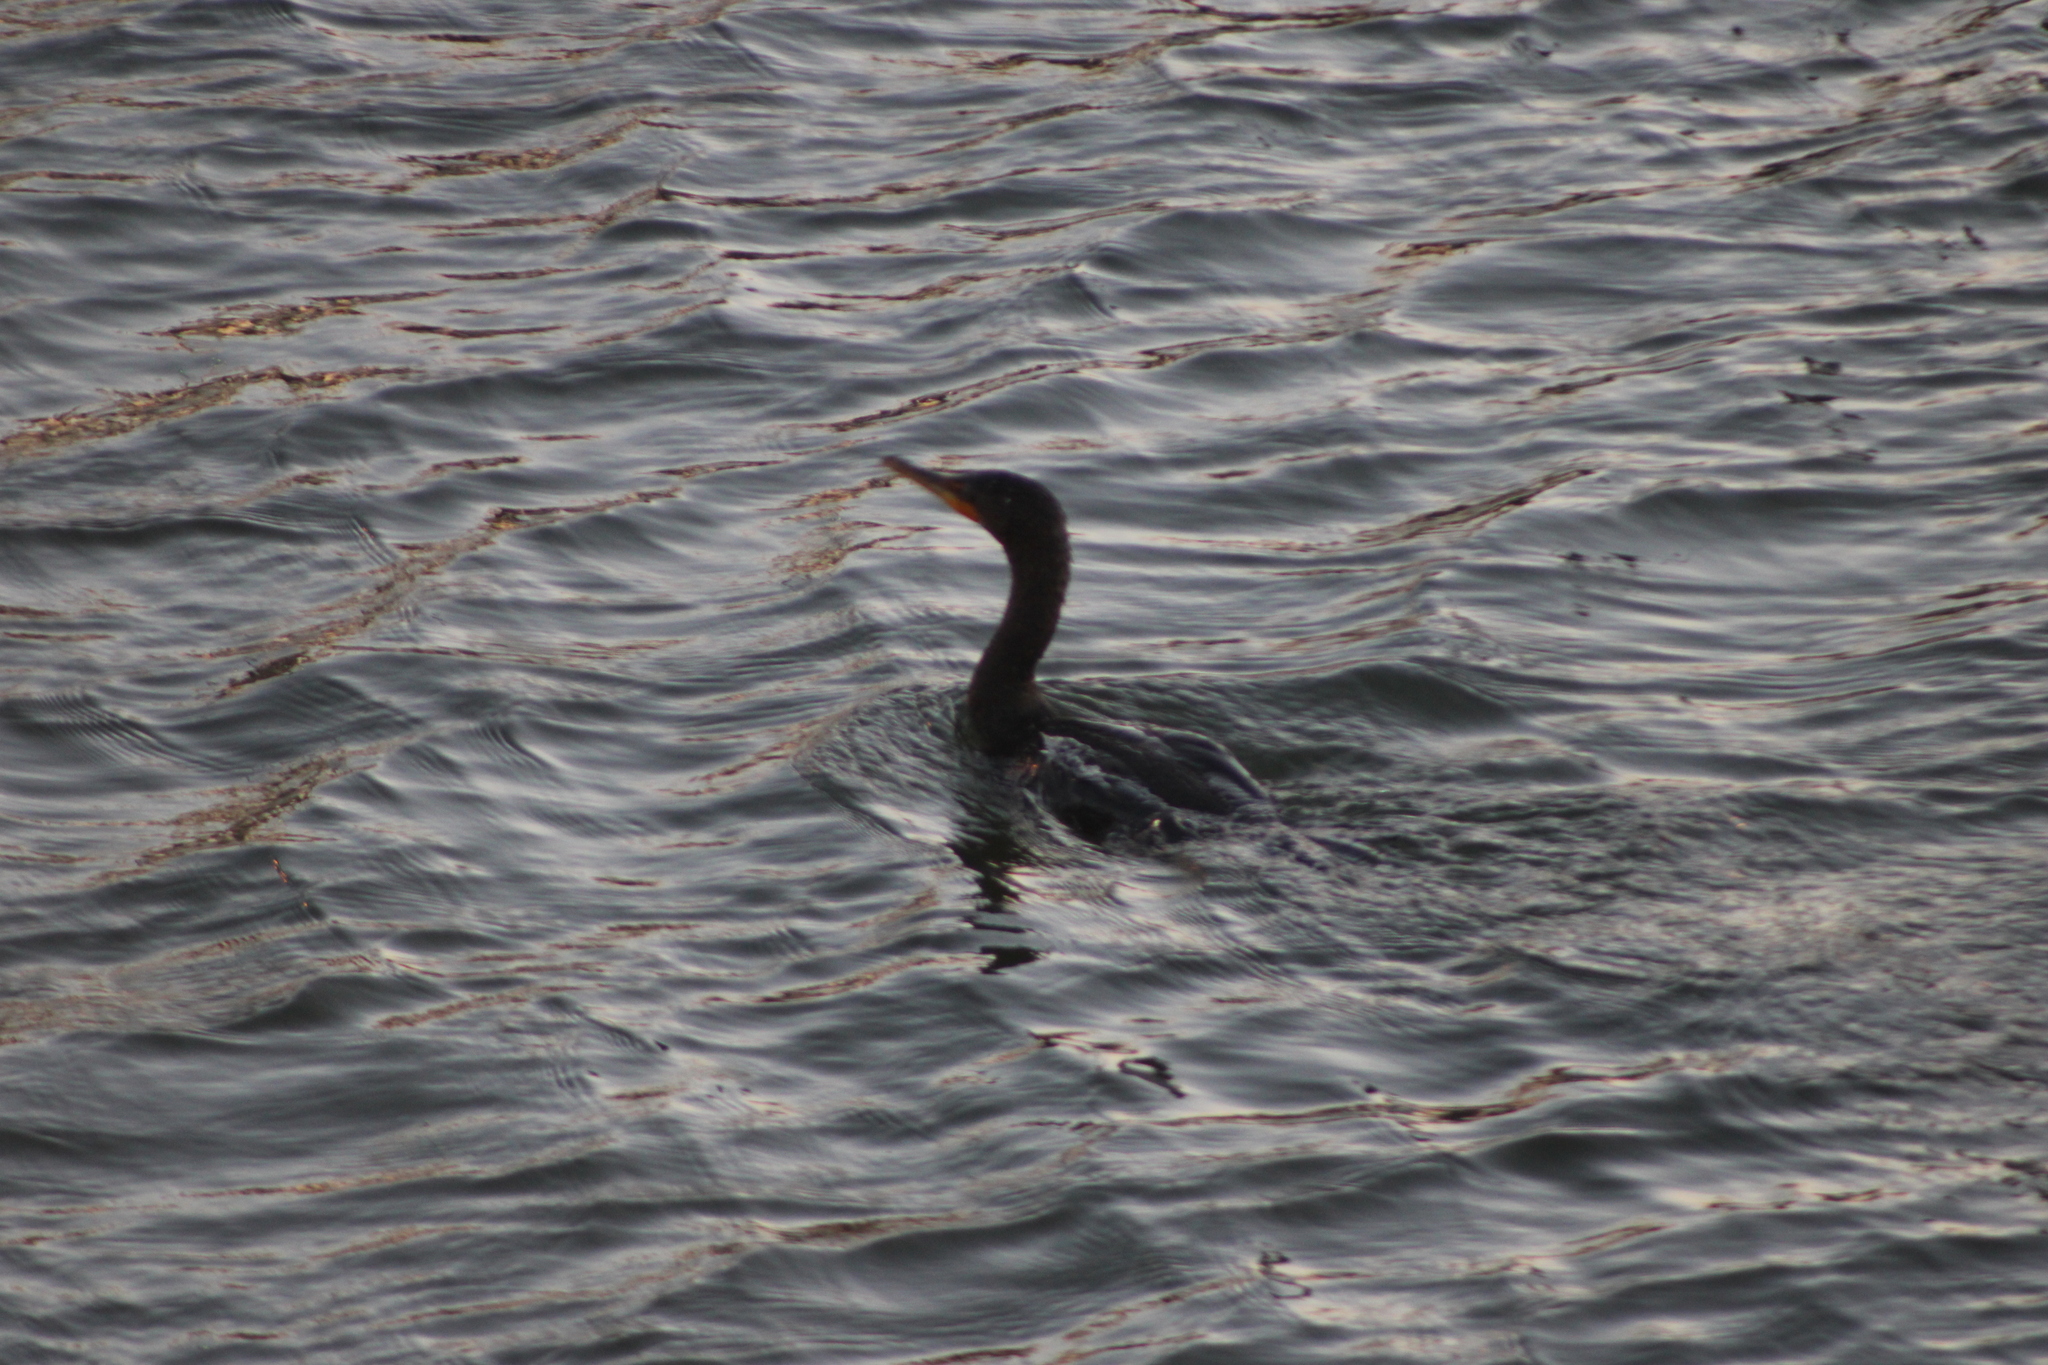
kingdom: Animalia
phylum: Chordata
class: Aves
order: Suliformes
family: Phalacrocoracidae
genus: Phalacrocorax
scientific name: Phalacrocorax auritus
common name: Double-crested cormorant
